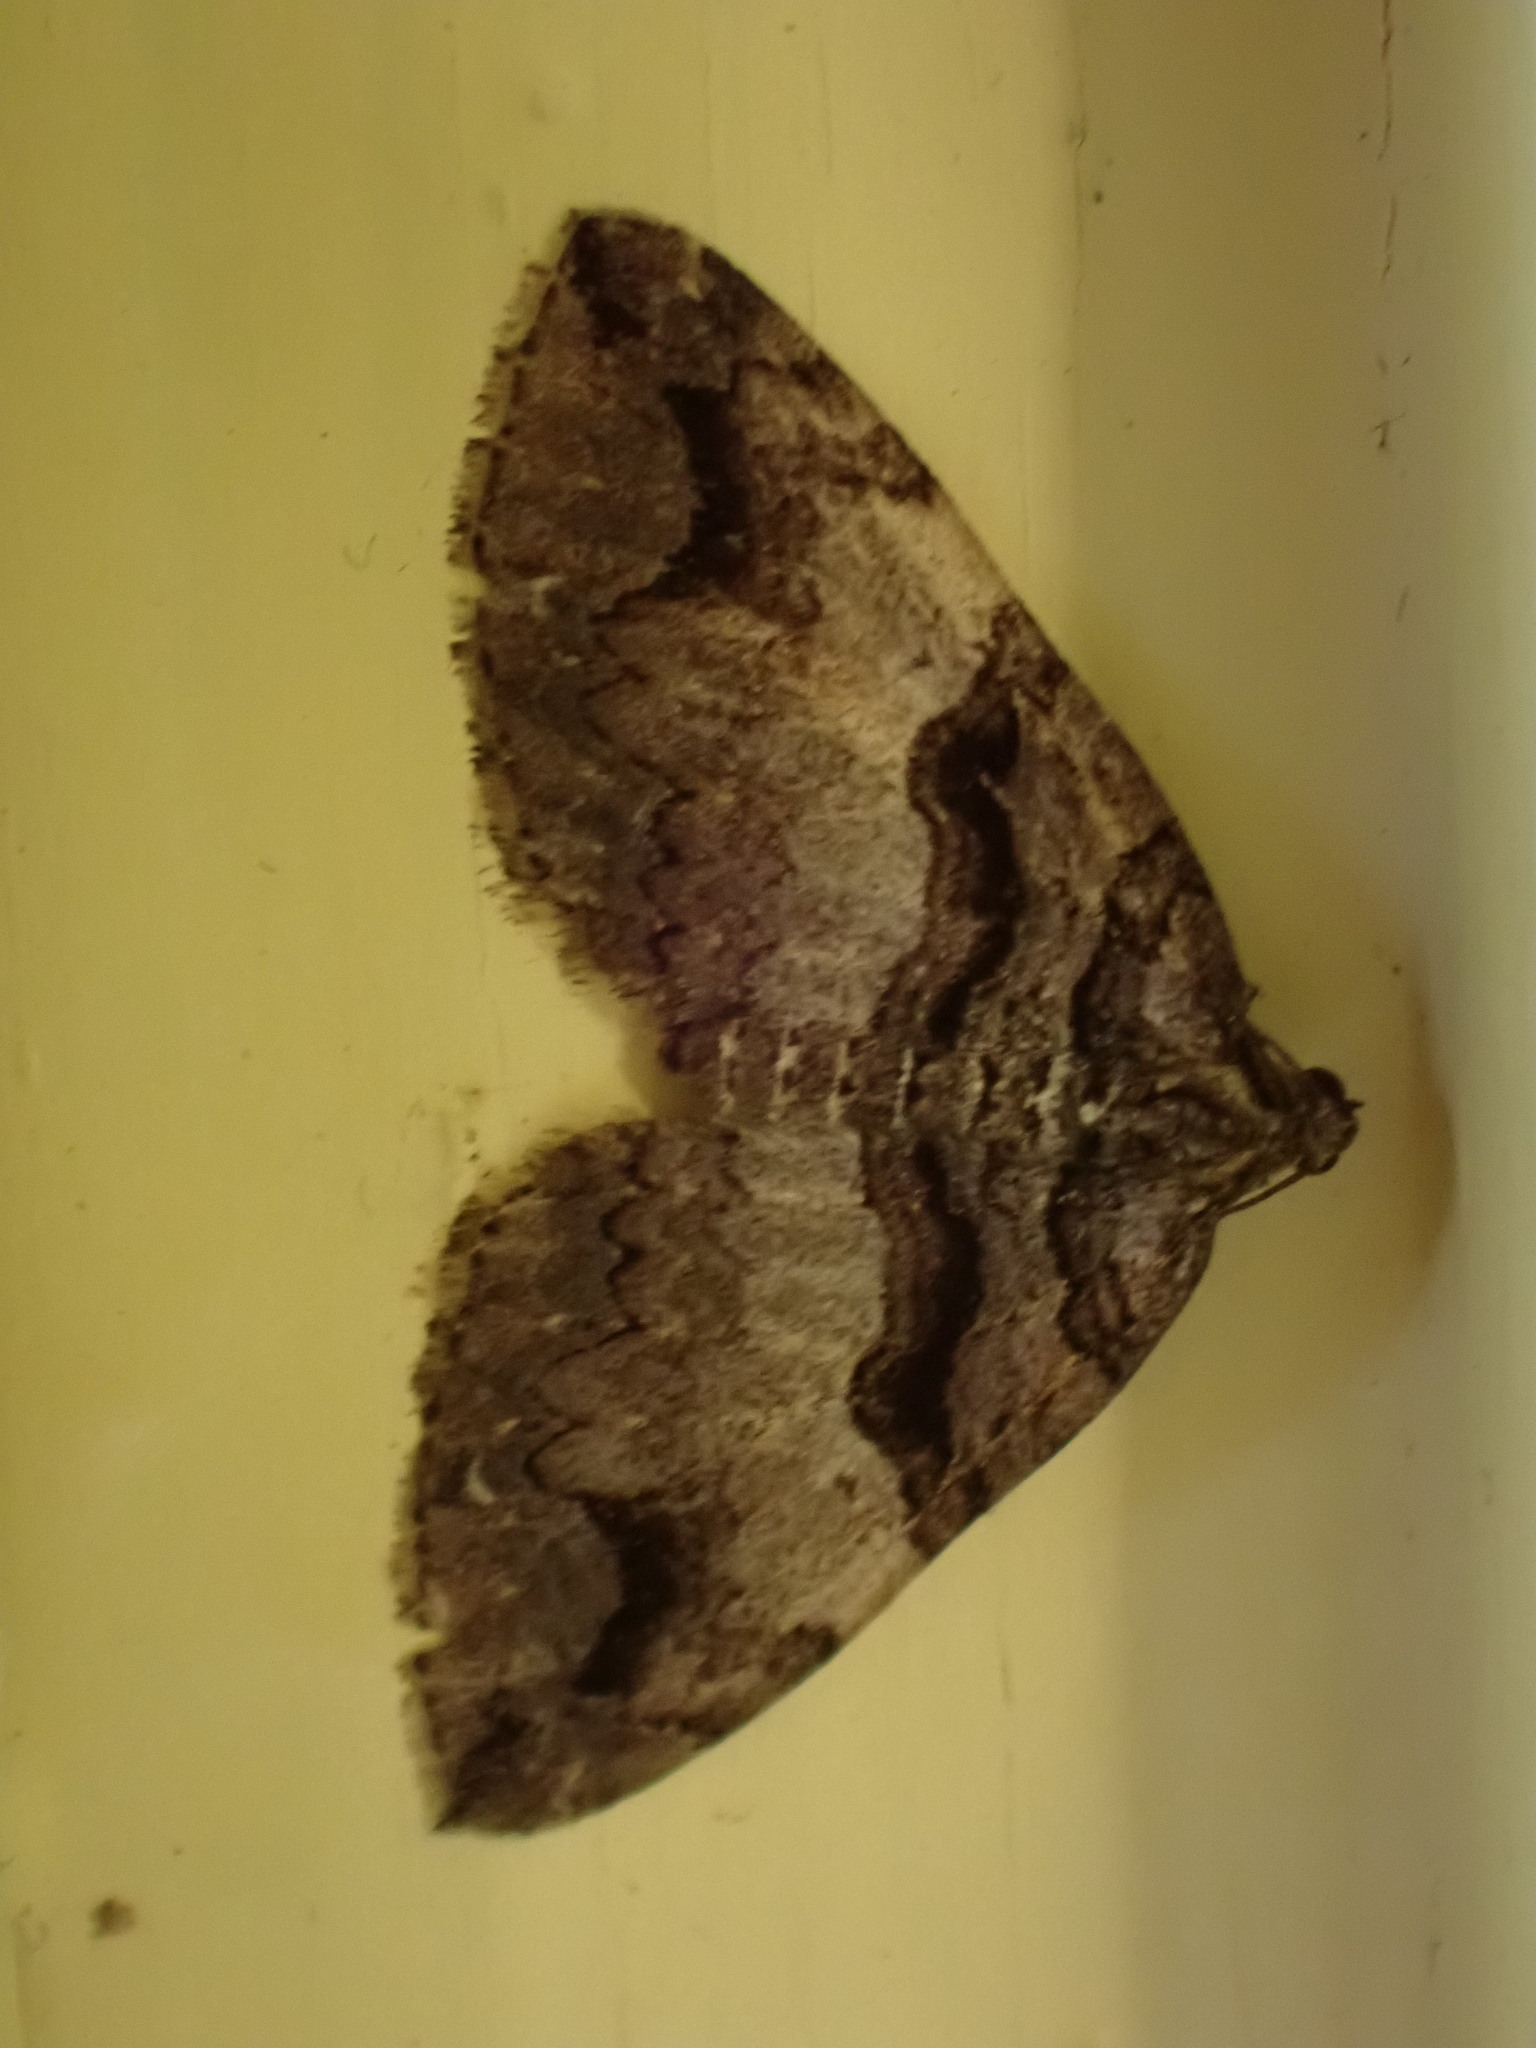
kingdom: Animalia
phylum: Arthropoda
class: Insecta
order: Lepidoptera
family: Geometridae
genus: Anticlea
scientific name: Anticlea vasiliata
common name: Variable carpet
